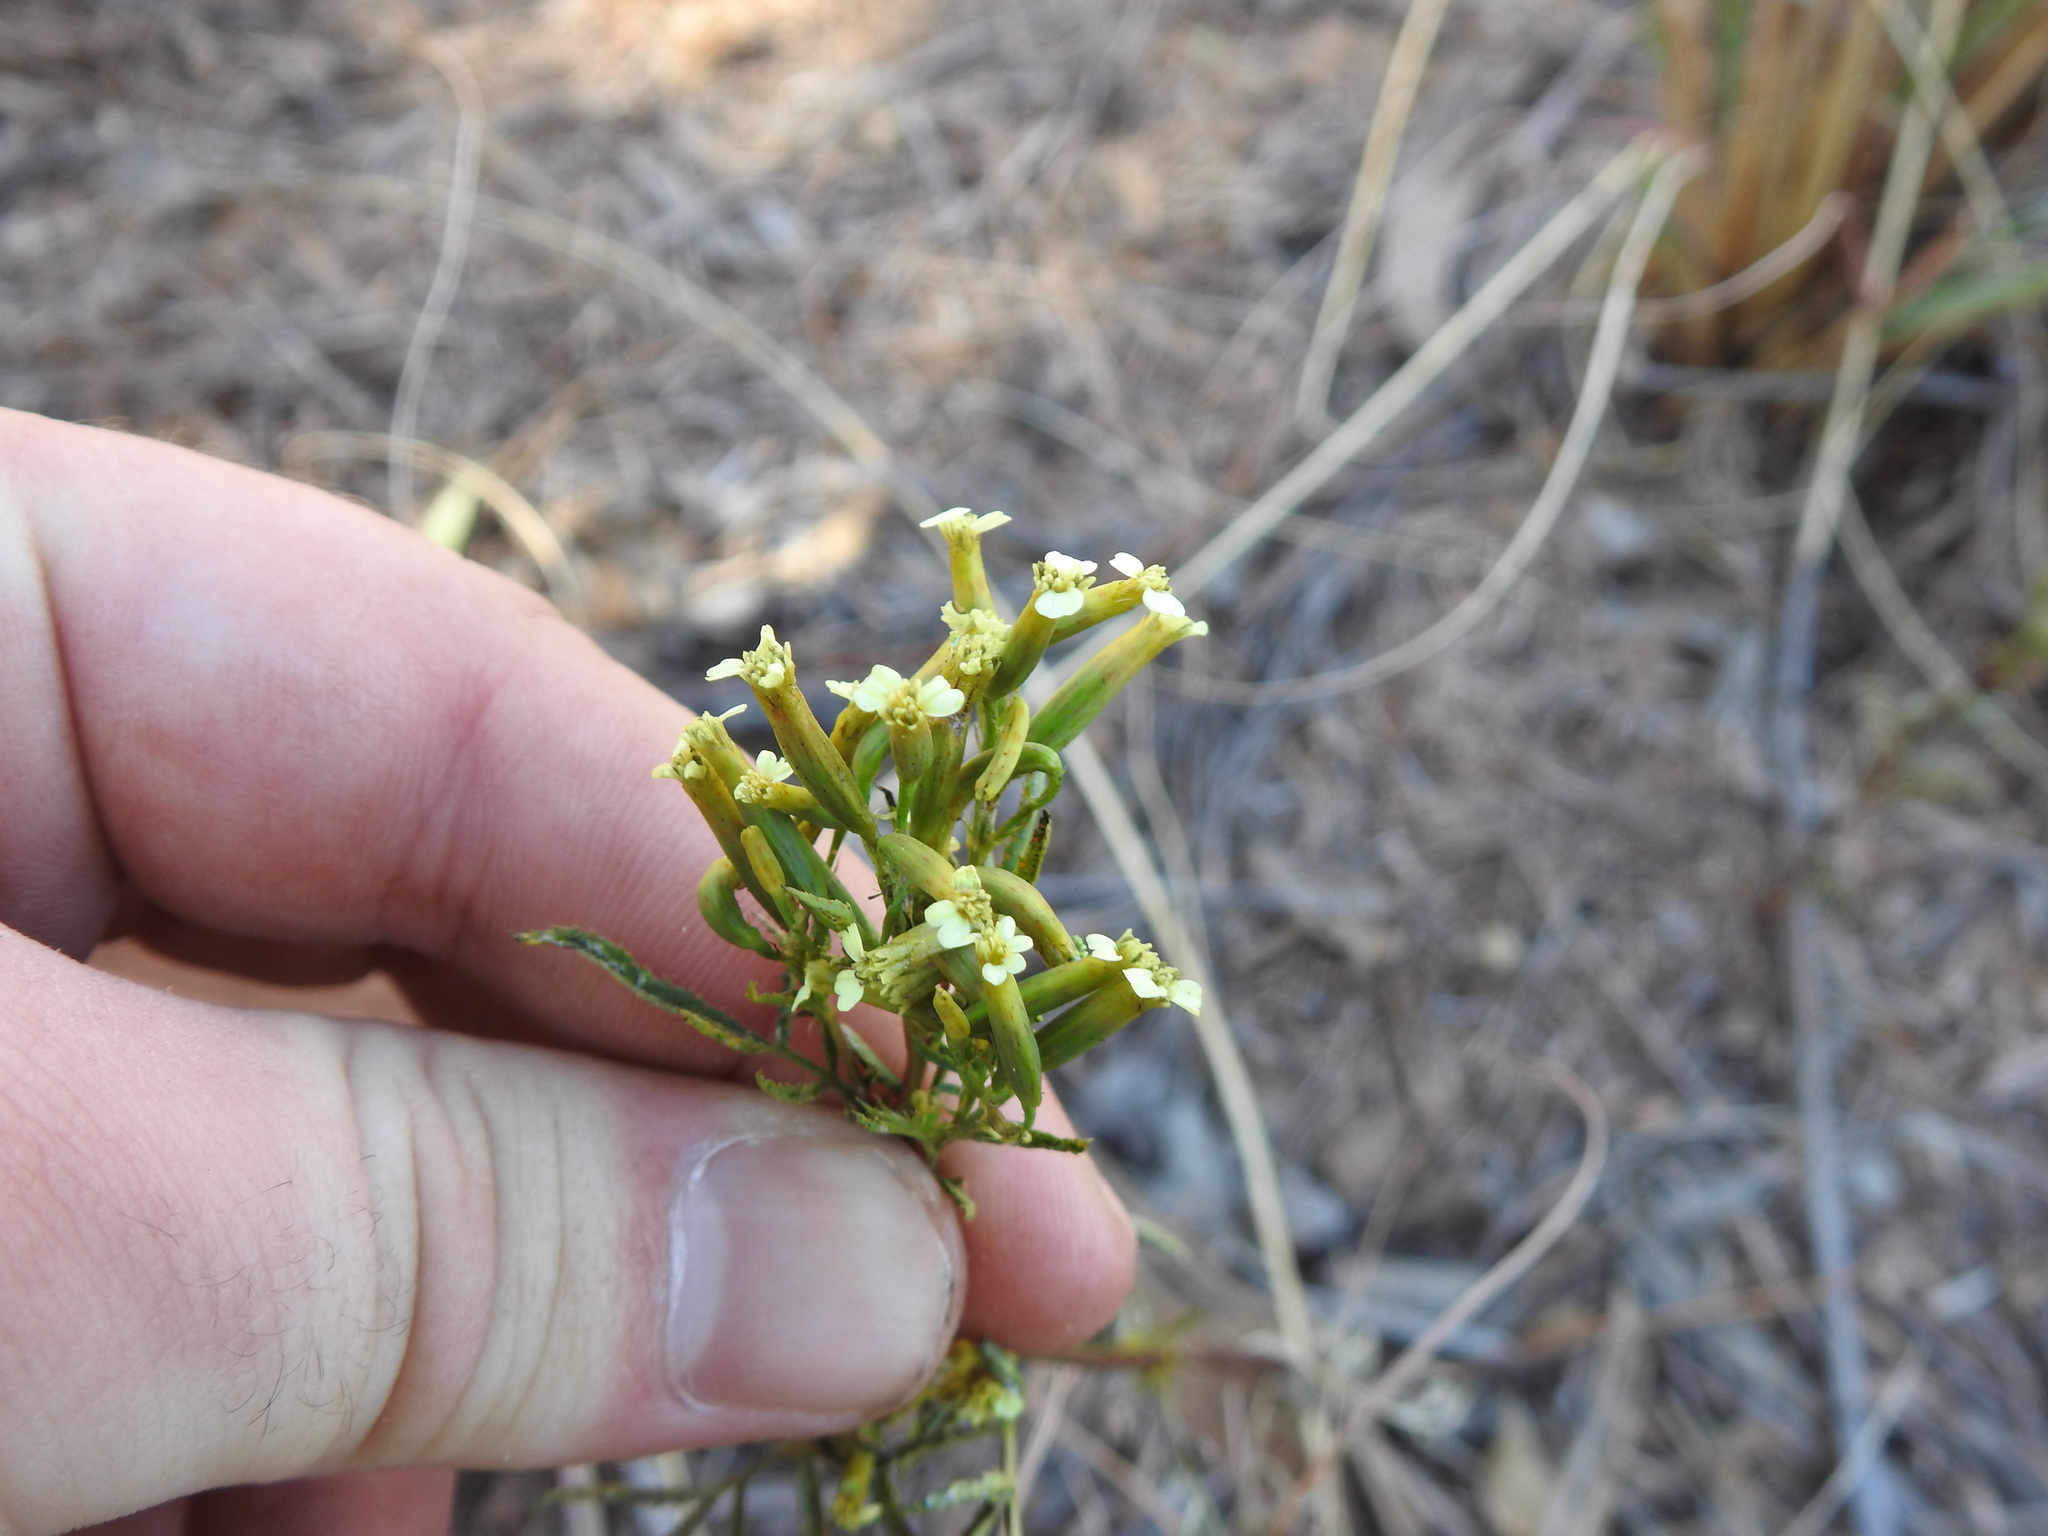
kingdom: Plantae
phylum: Tracheophyta
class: Magnoliopsida
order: Asterales
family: Asteraceae
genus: Tagetes
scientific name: Tagetes minuta
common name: Muster john henry
